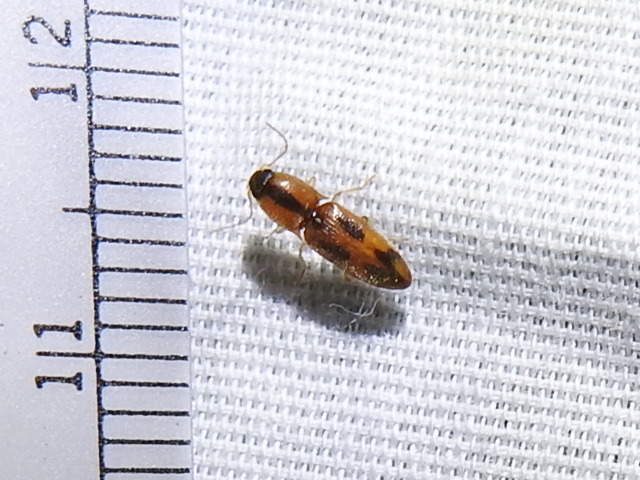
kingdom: Animalia
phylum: Arthropoda
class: Insecta
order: Coleoptera
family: Elateridae
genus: Aeolus
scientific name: Aeolus mellillus
